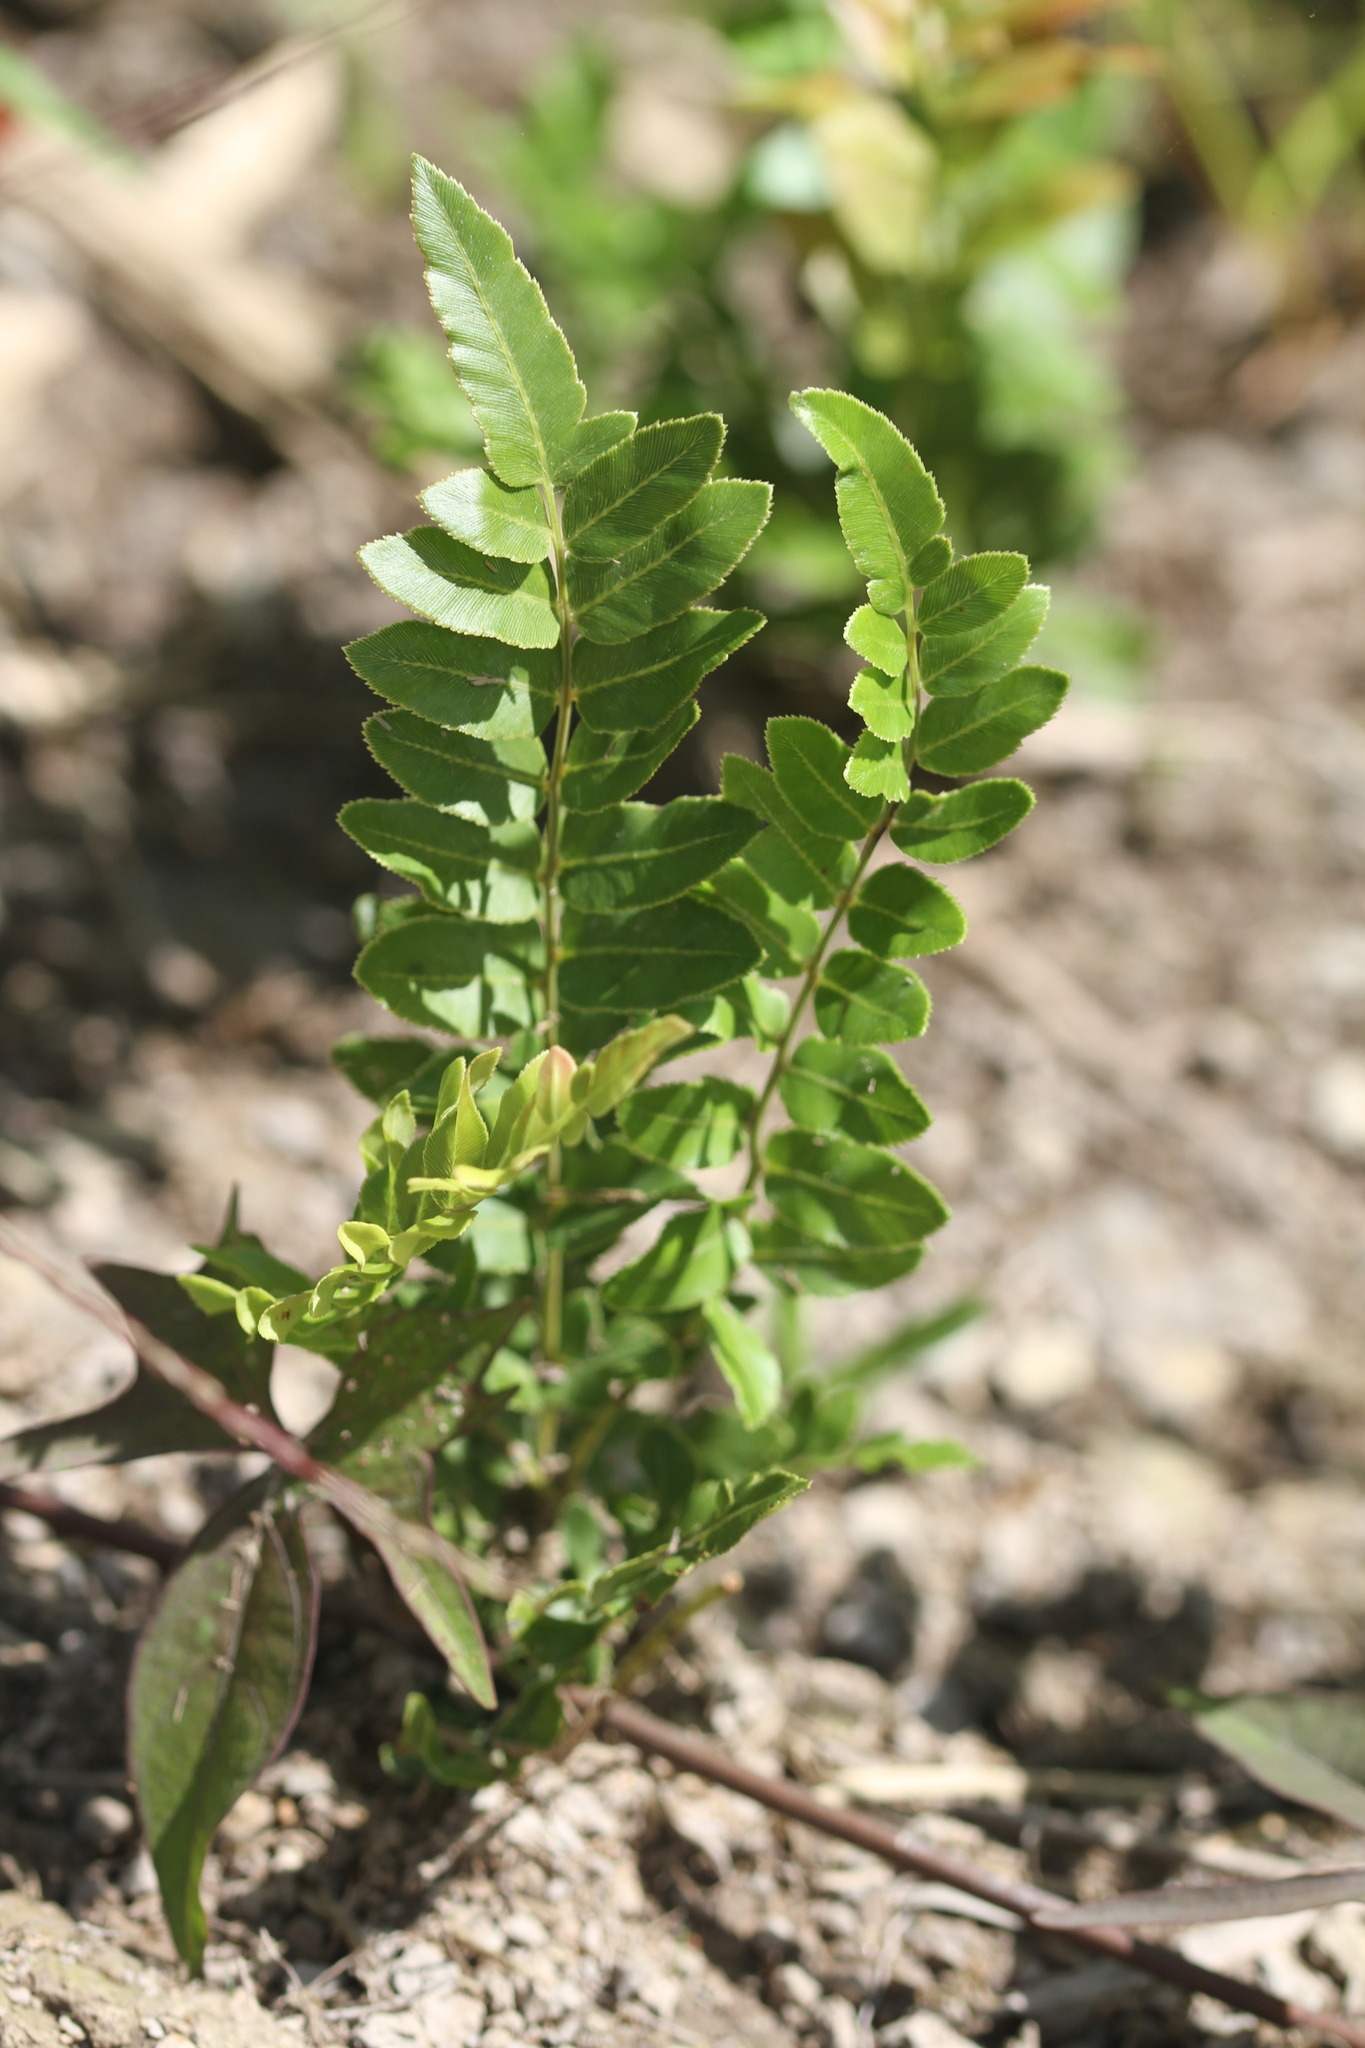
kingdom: Plantae
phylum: Tracheophyta
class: Polypodiopsida
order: Polypodiales
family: Blechnaceae
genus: Telmatoblechnum
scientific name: Telmatoblechnum serrulatum
